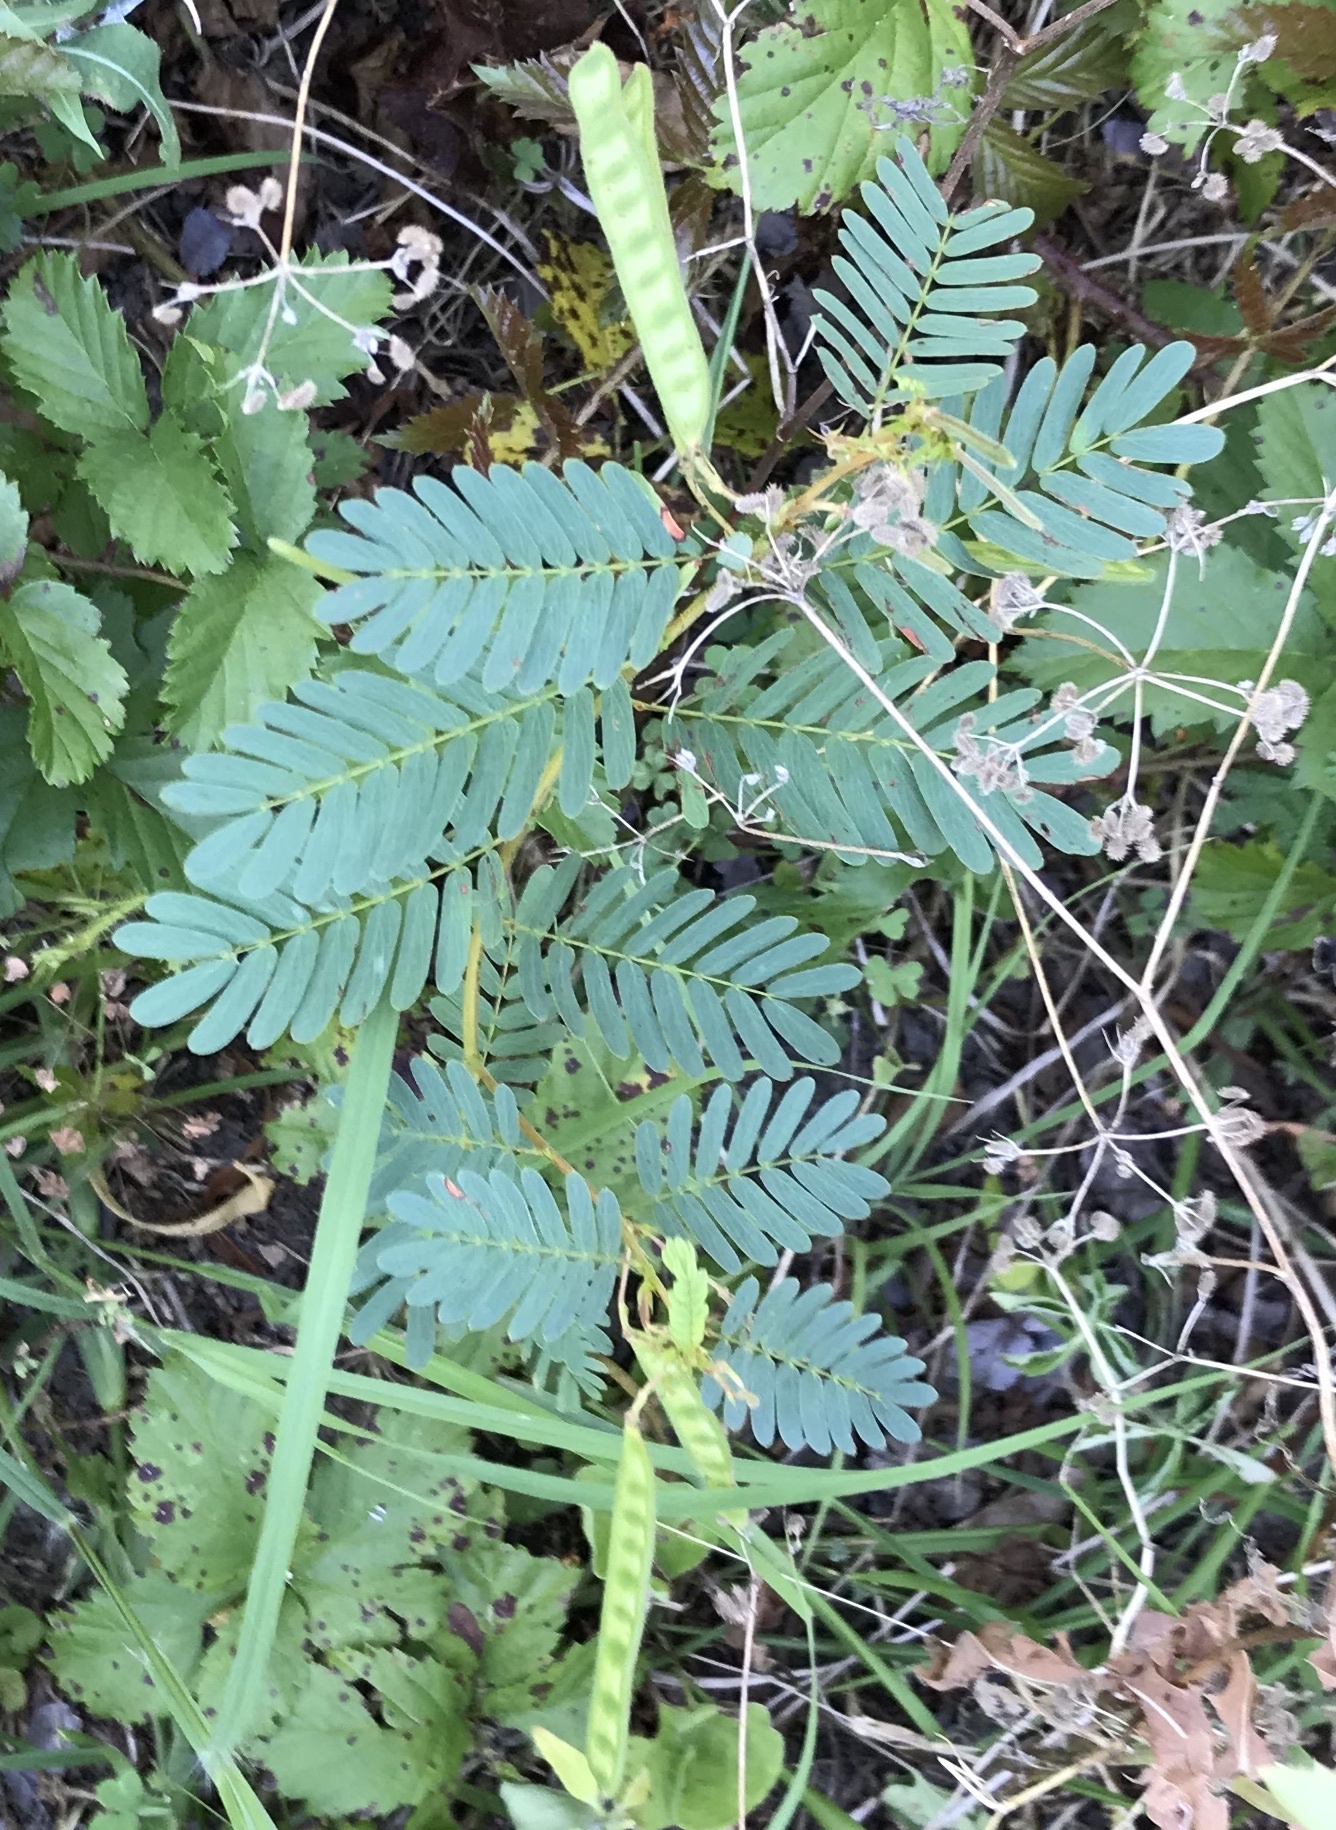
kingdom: Plantae
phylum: Tracheophyta
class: Magnoliopsida
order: Fabales
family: Fabaceae
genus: Chamaecrista
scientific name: Chamaecrista fasciculata
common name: Golden cassia
